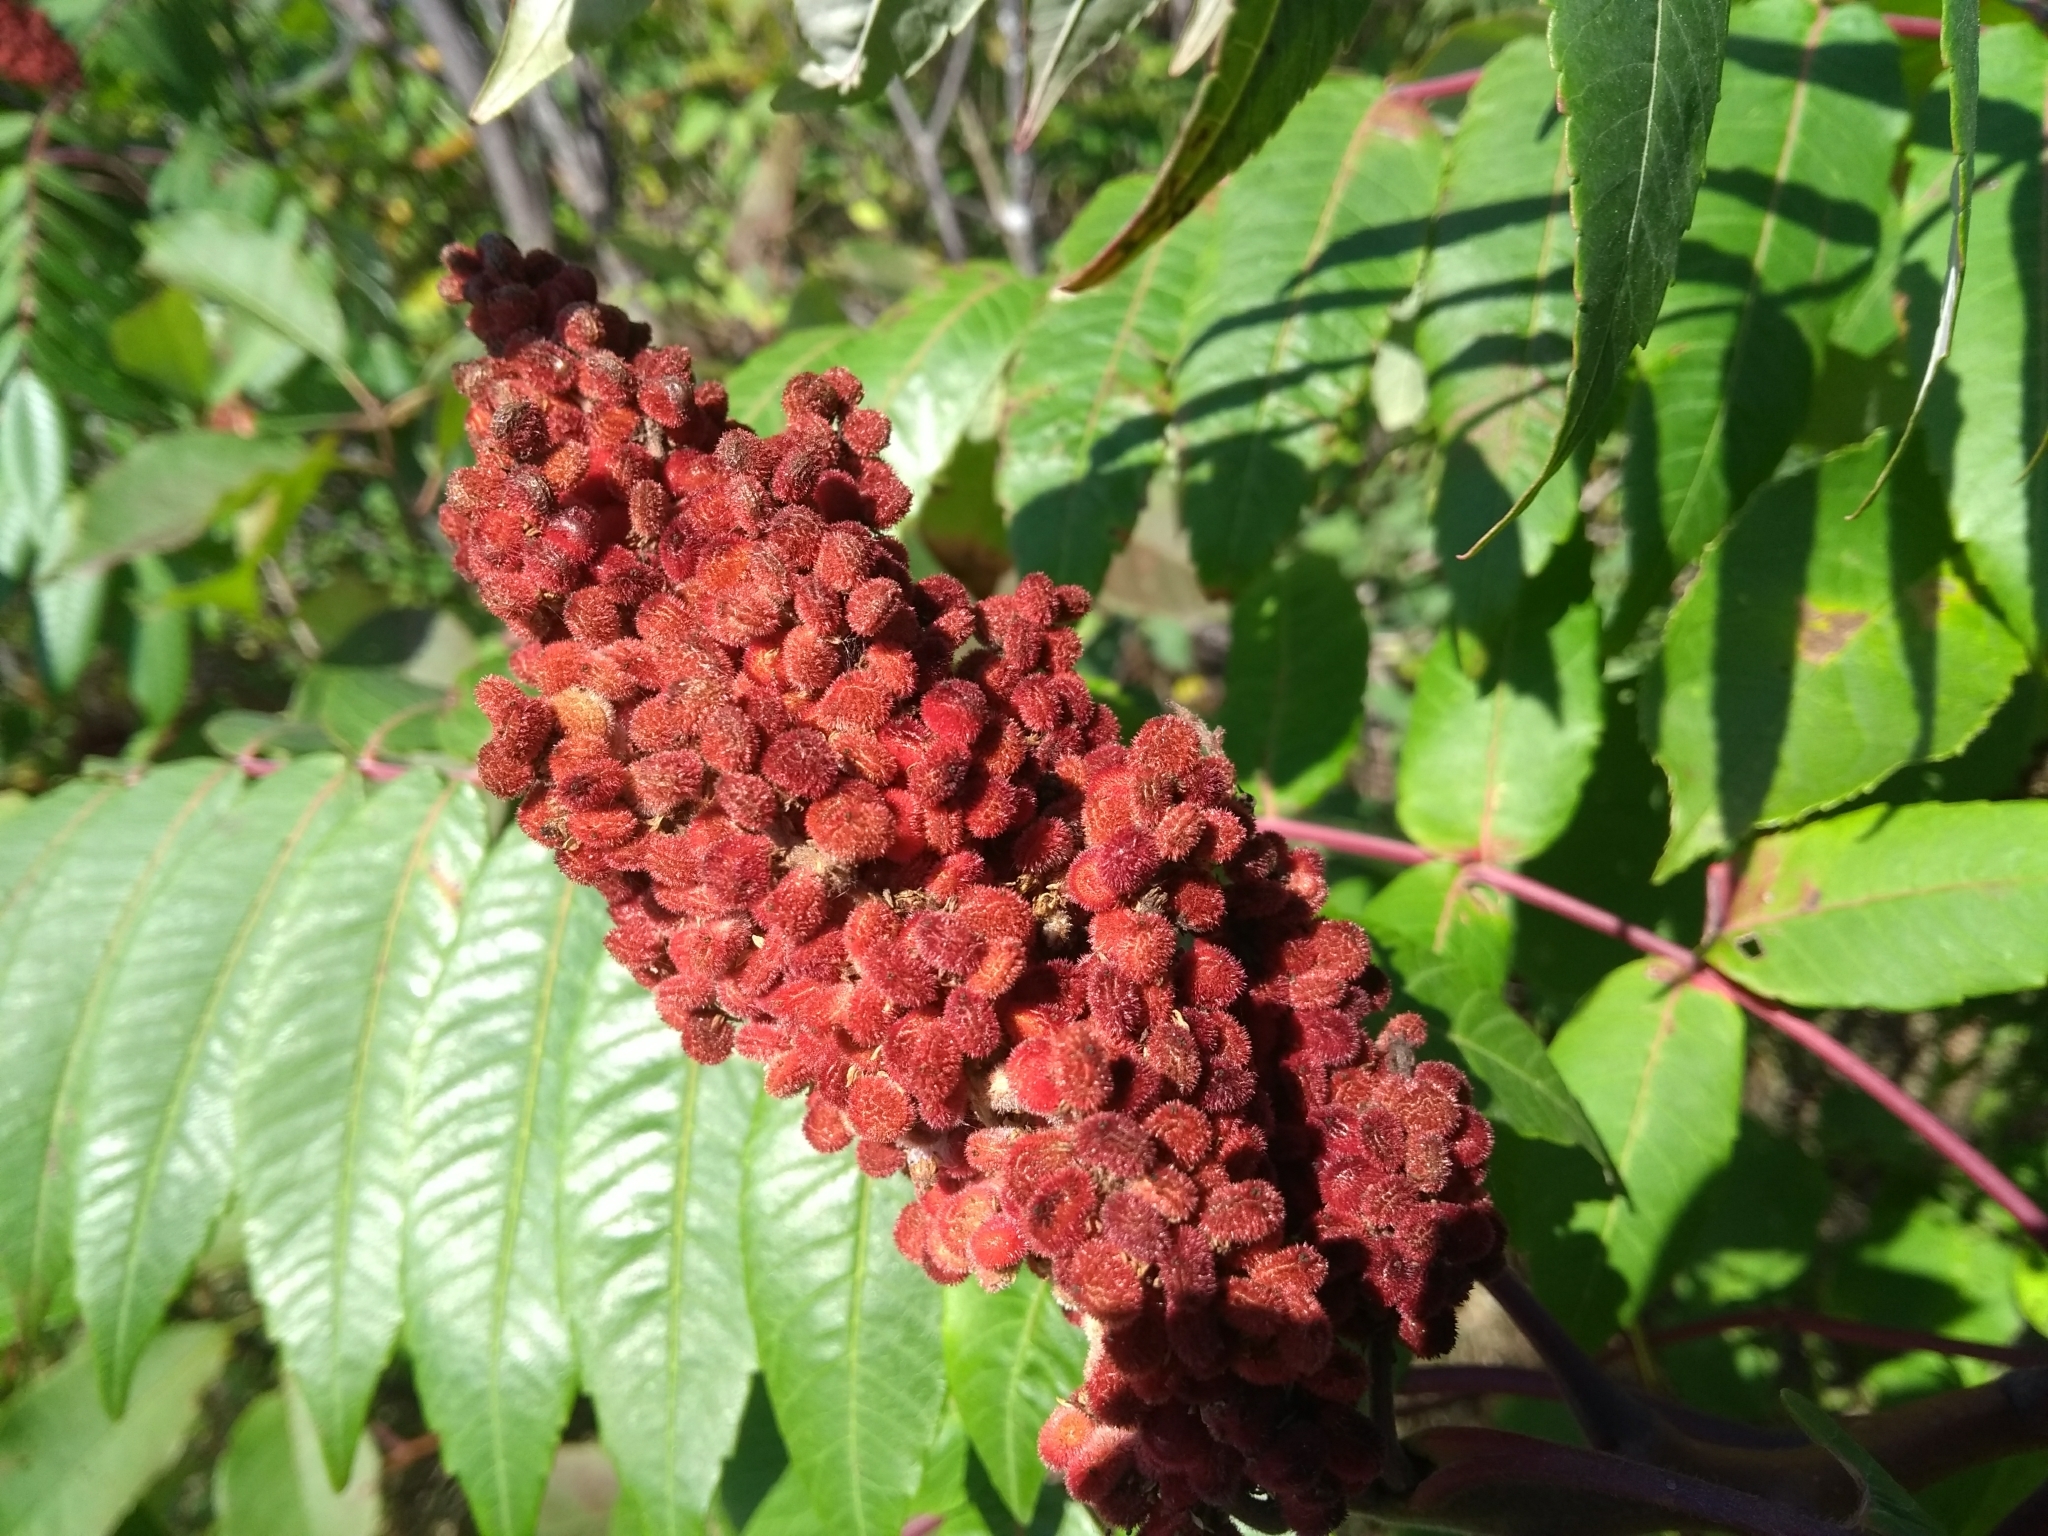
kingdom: Plantae
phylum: Tracheophyta
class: Magnoliopsida
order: Sapindales
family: Anacardiaceae
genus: Rhus
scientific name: Rhus typhina
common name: Staghorn sumac
